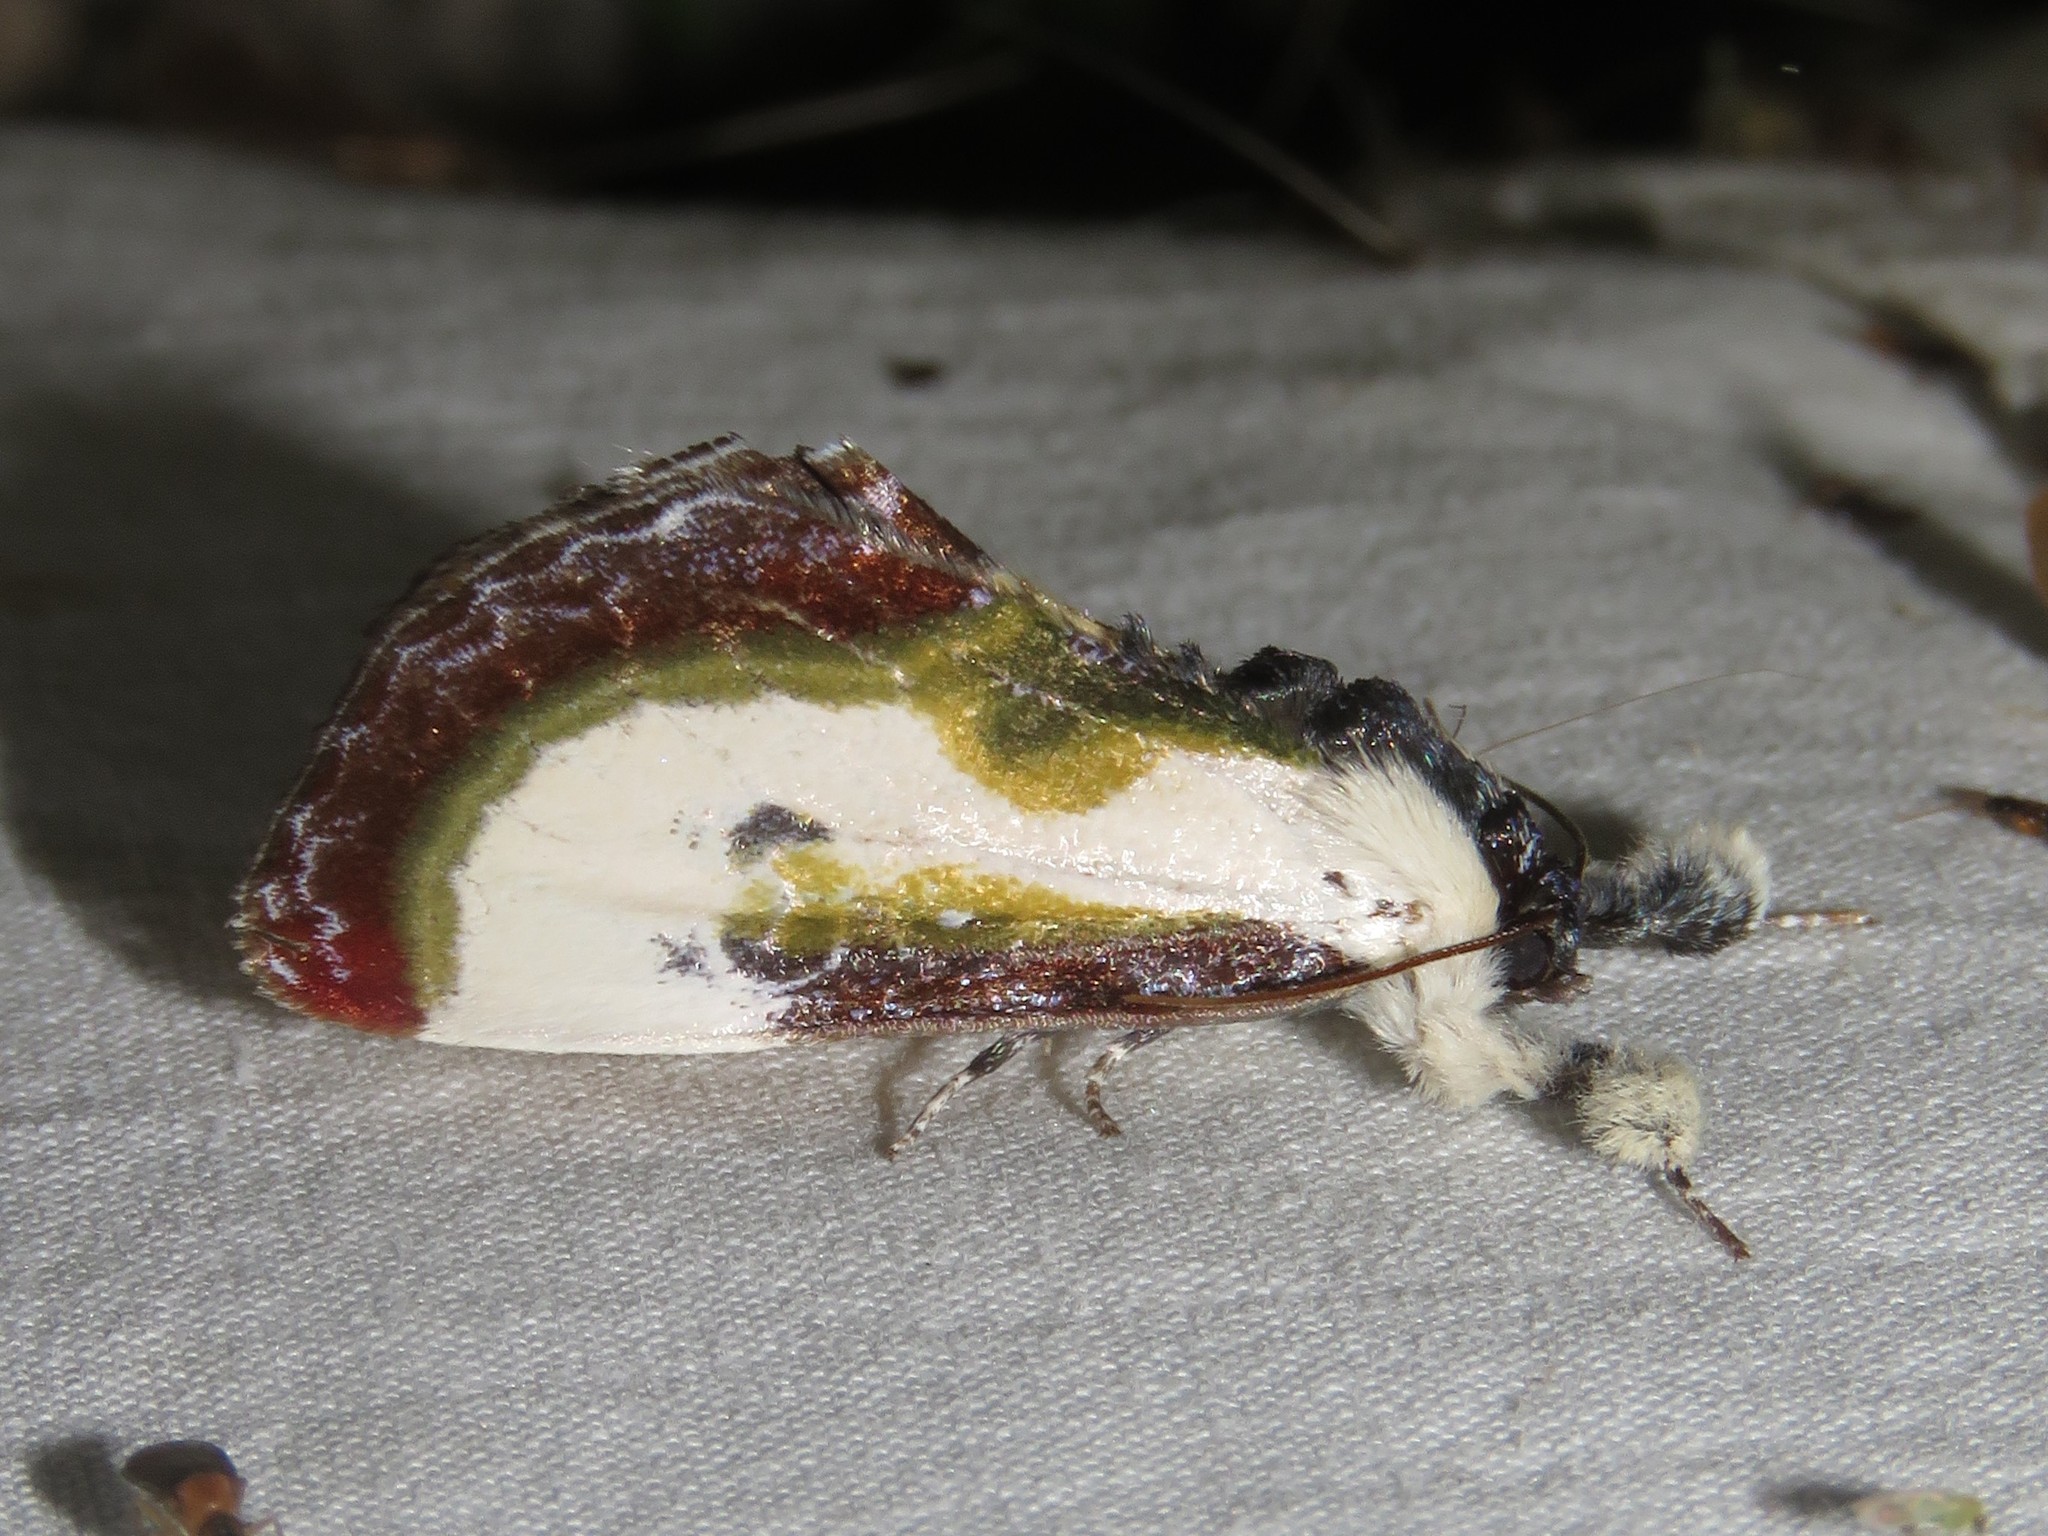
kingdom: Animalia
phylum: Arthropoda
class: Insecta
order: Lepidoptera
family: Noctuidae
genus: Eudryas
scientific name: Eudryas grata
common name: Beautiful wood-nymph
